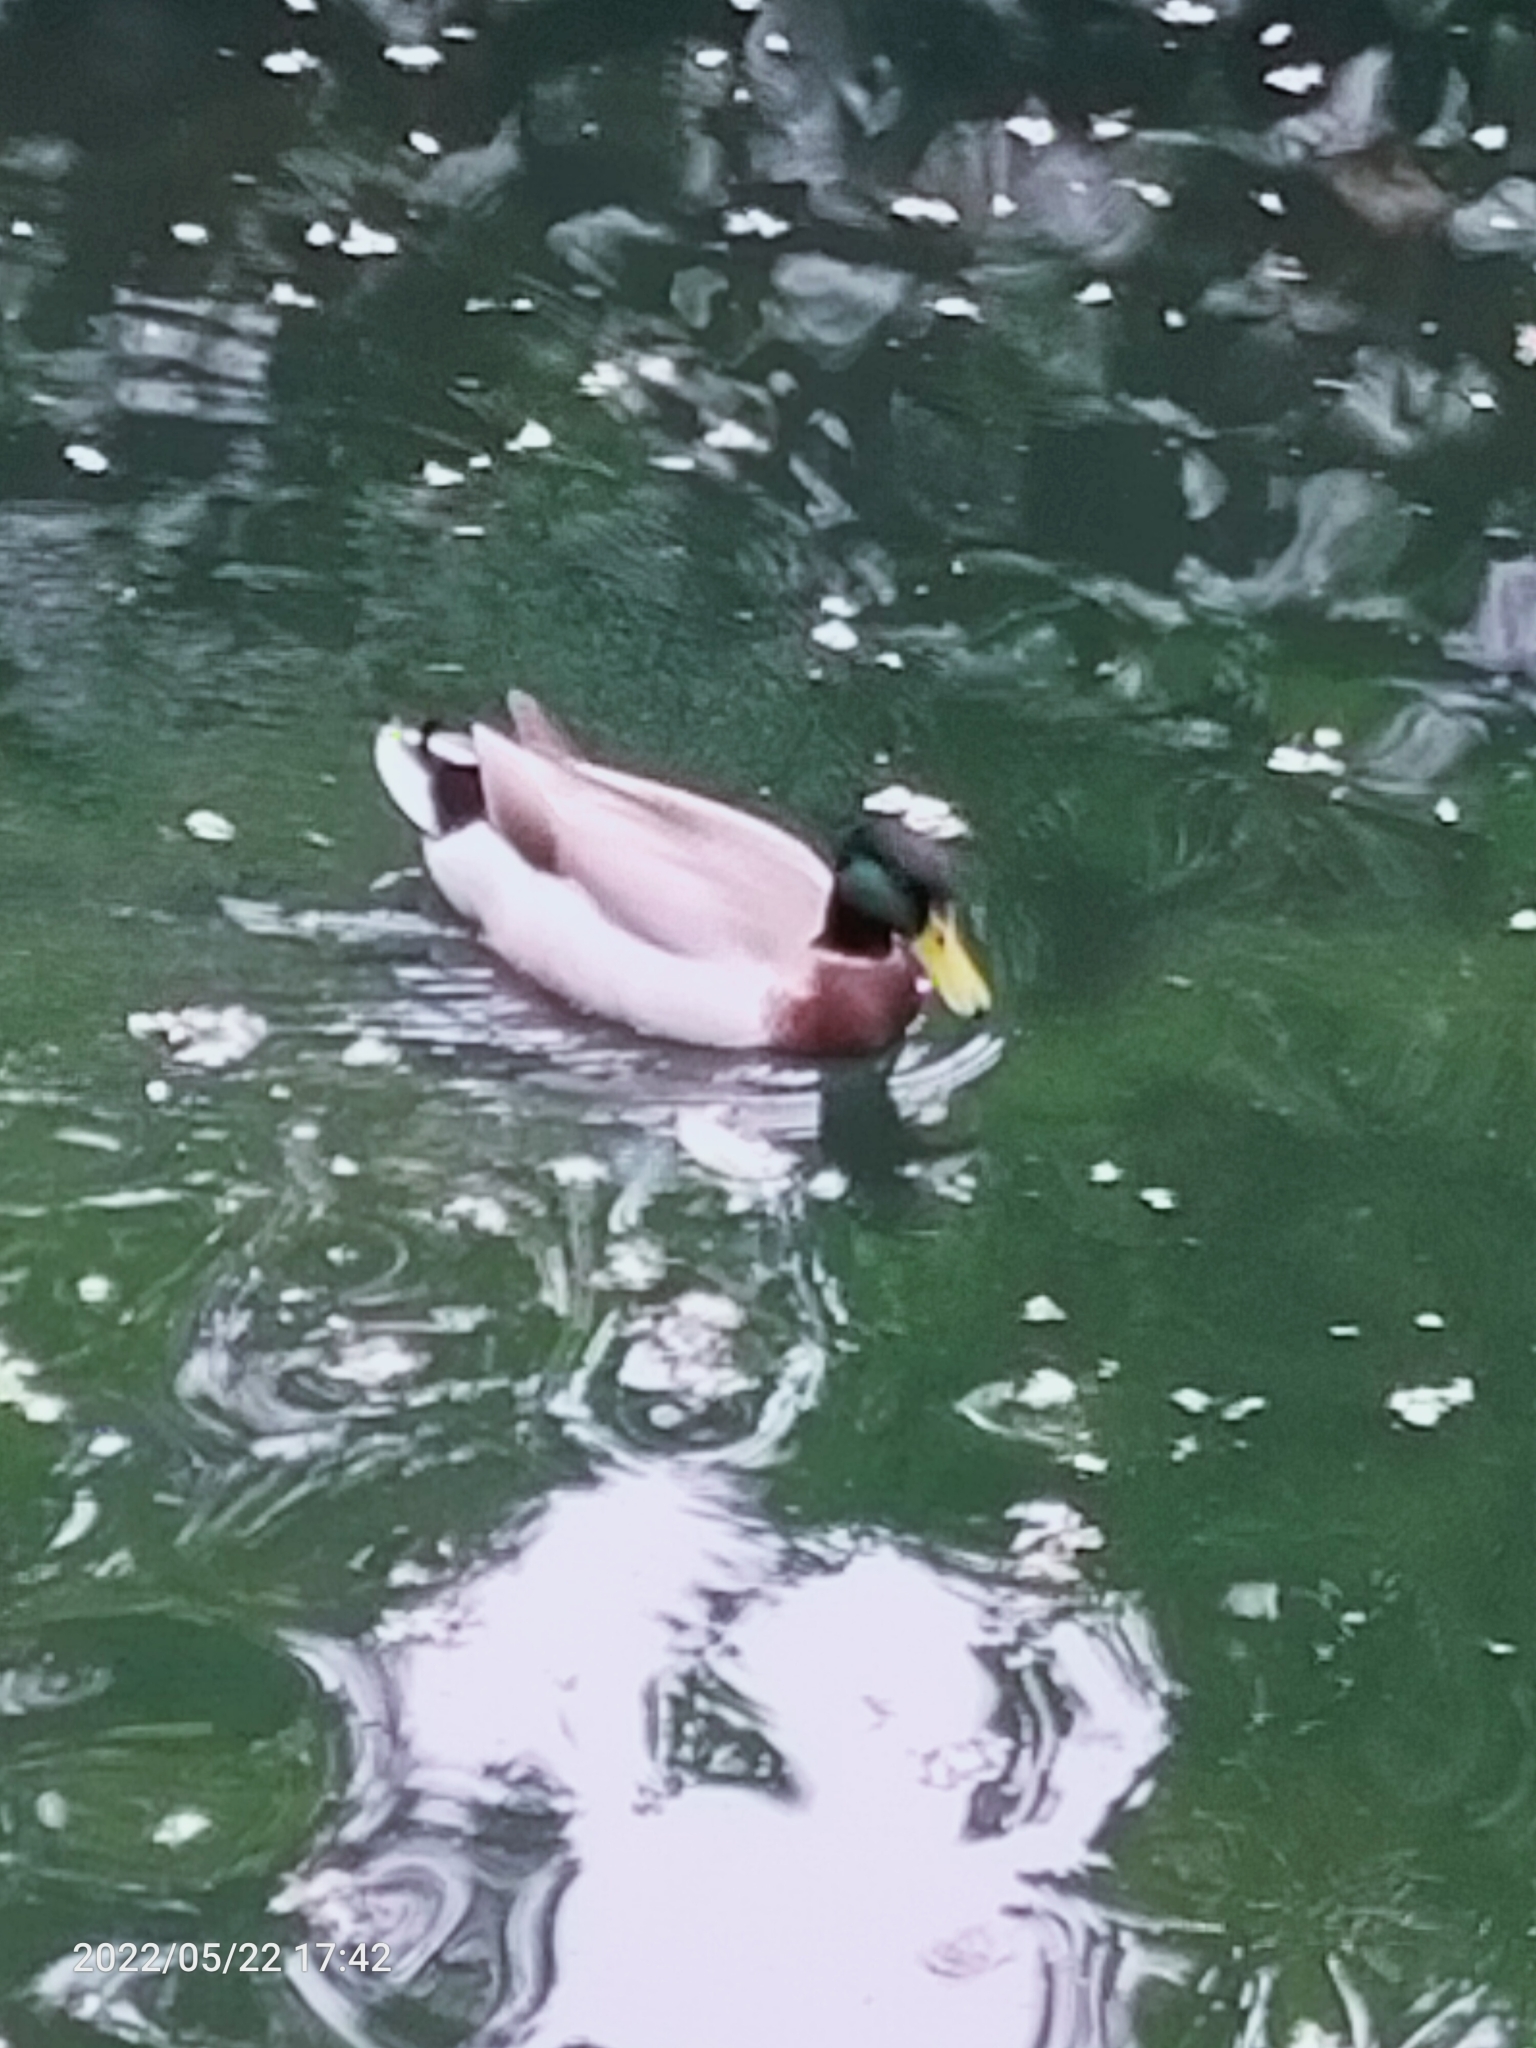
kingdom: Animalia
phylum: Chordata
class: Aves
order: Anseriformes
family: Anatidae
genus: Anas
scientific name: Anas platyrhynchos
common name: Mallard
